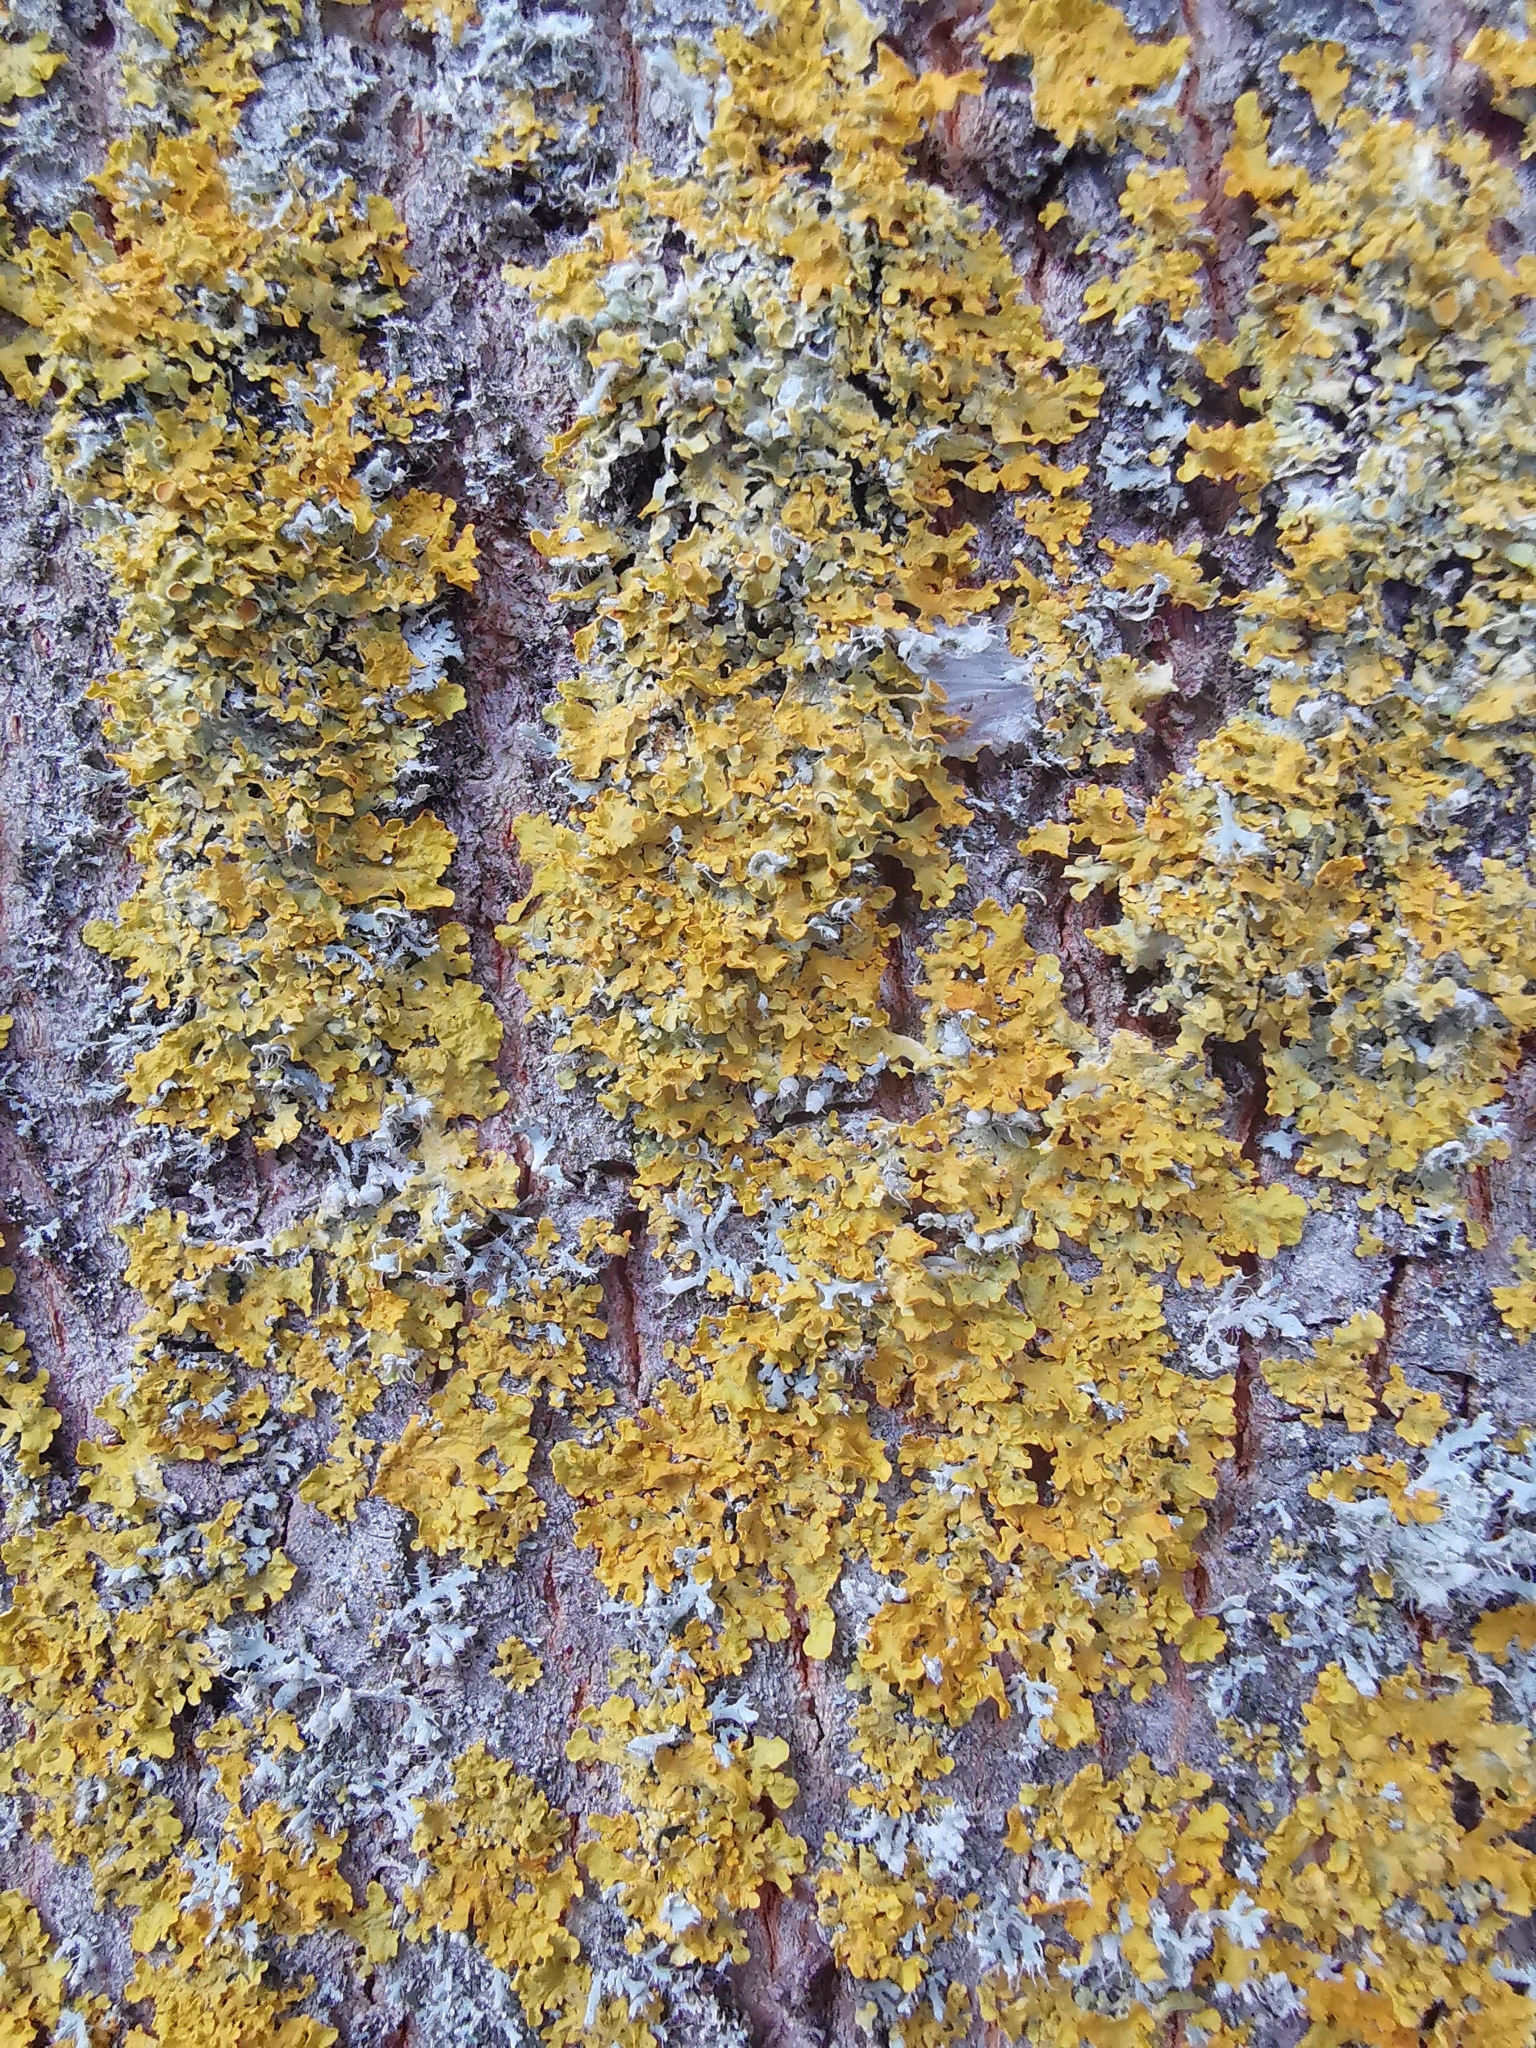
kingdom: Fungi
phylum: Ascomycota
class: Lecanoromycetes
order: Teloschistales
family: Teloschistaceae
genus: Xanthoria
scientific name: Xanthoria parietina
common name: Common orange lichen
